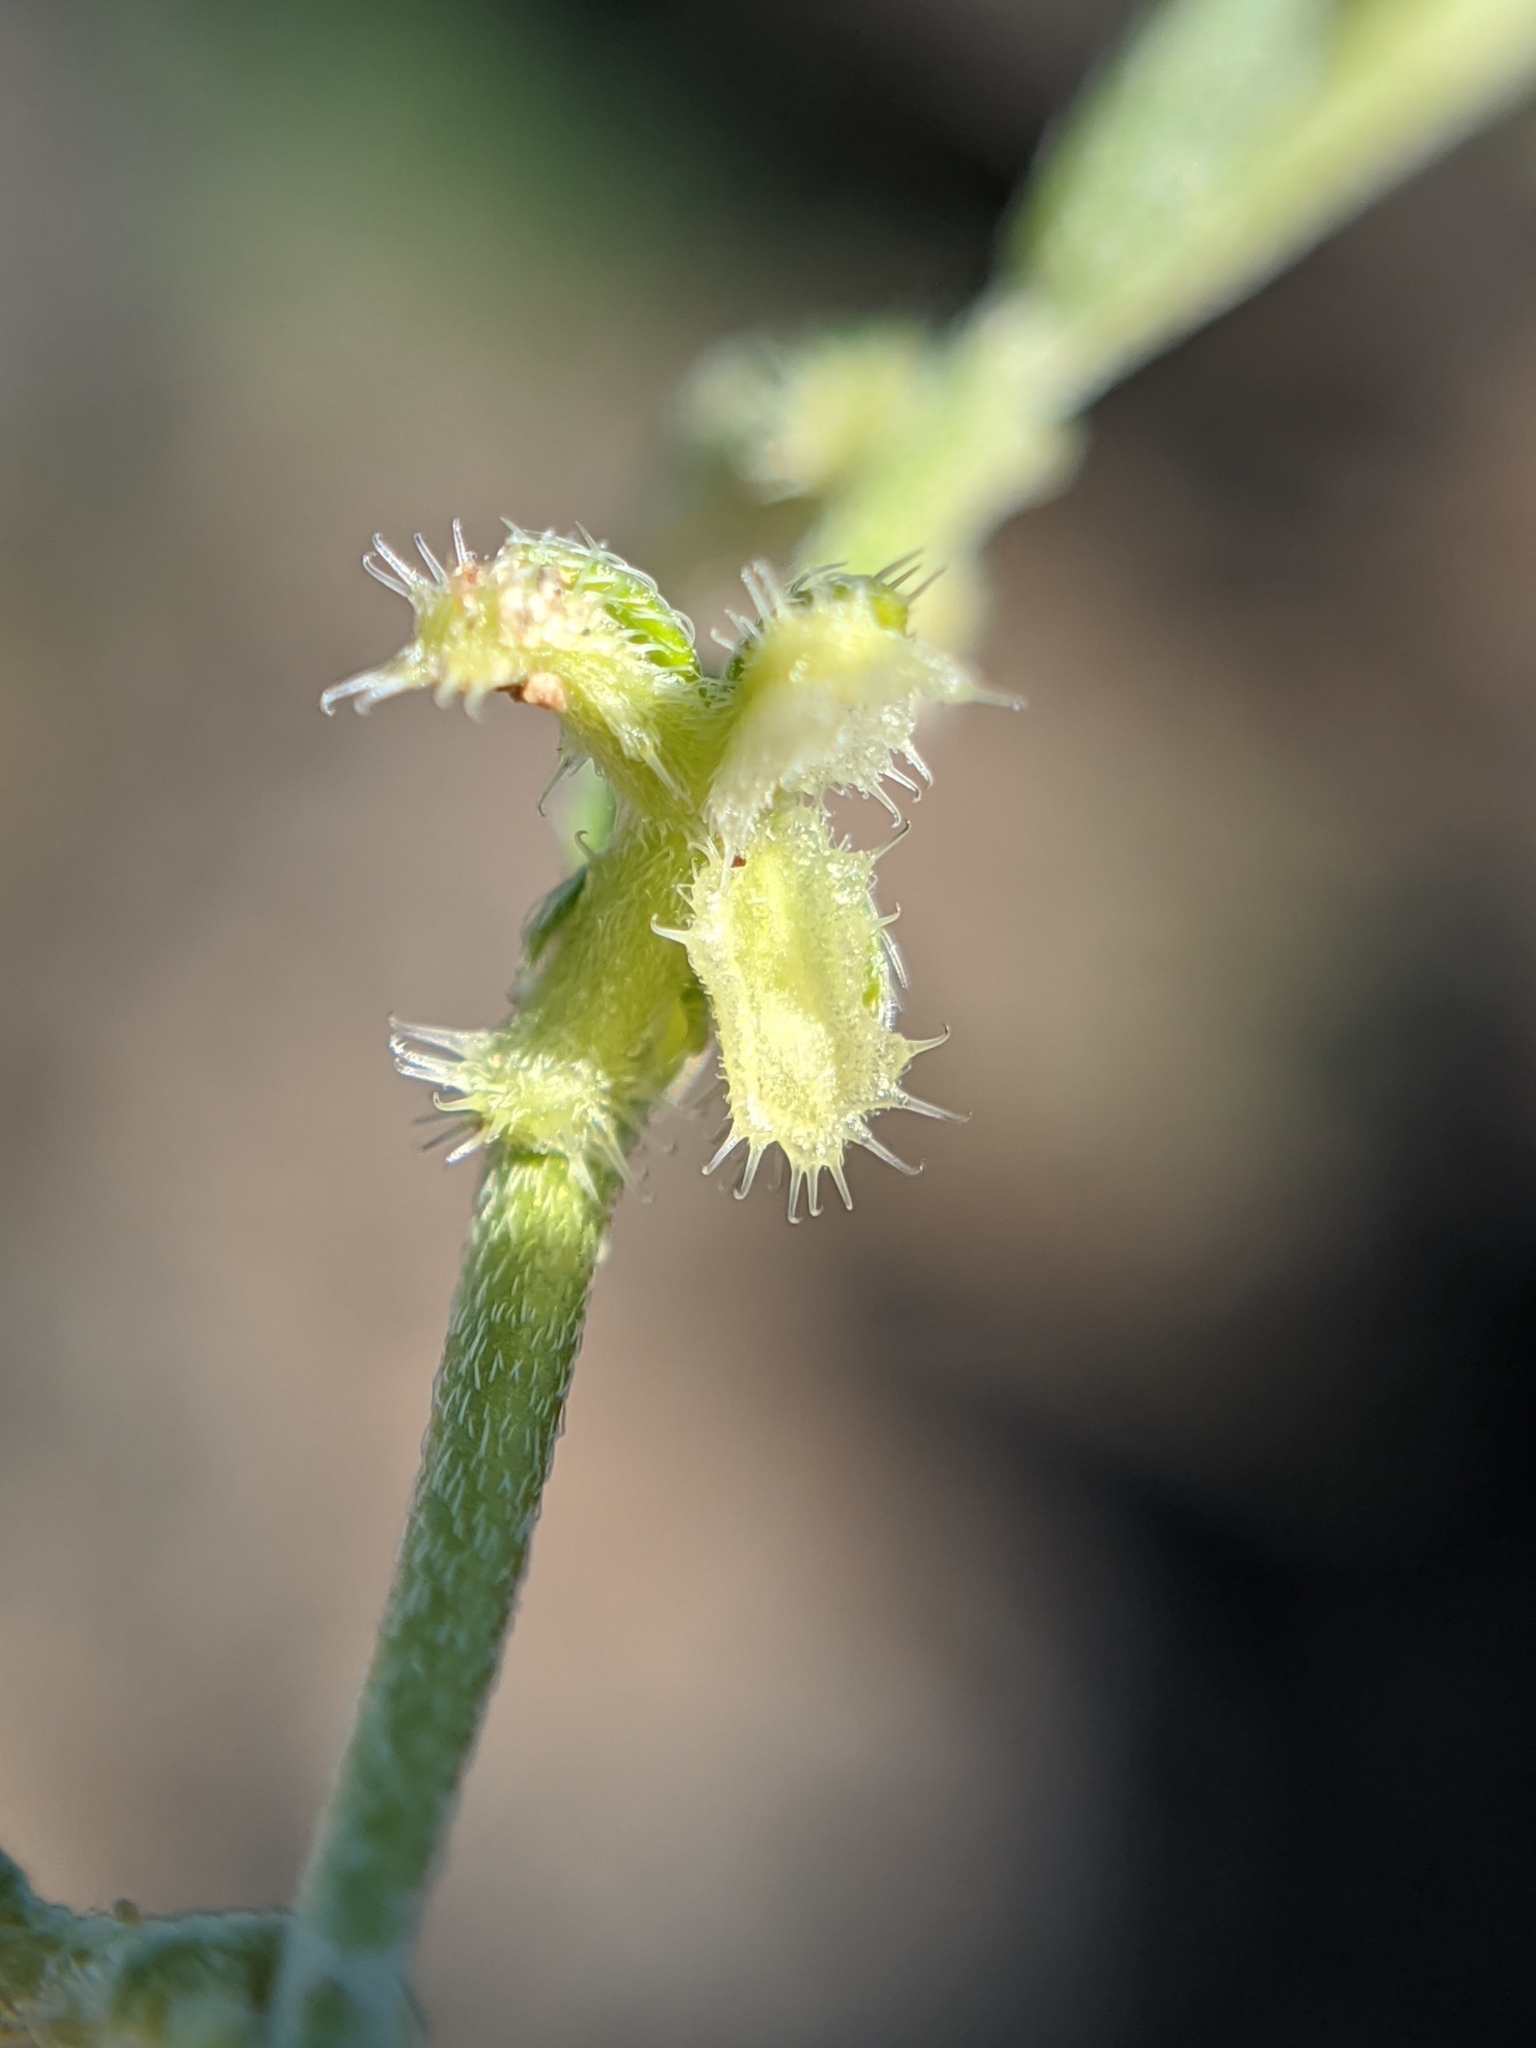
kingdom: Plantae
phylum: Tracheophyta
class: Magnoliopsida
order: Boraginales
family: Boraginaceae
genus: Pectocarya
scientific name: Pectocarya heterocarpa
